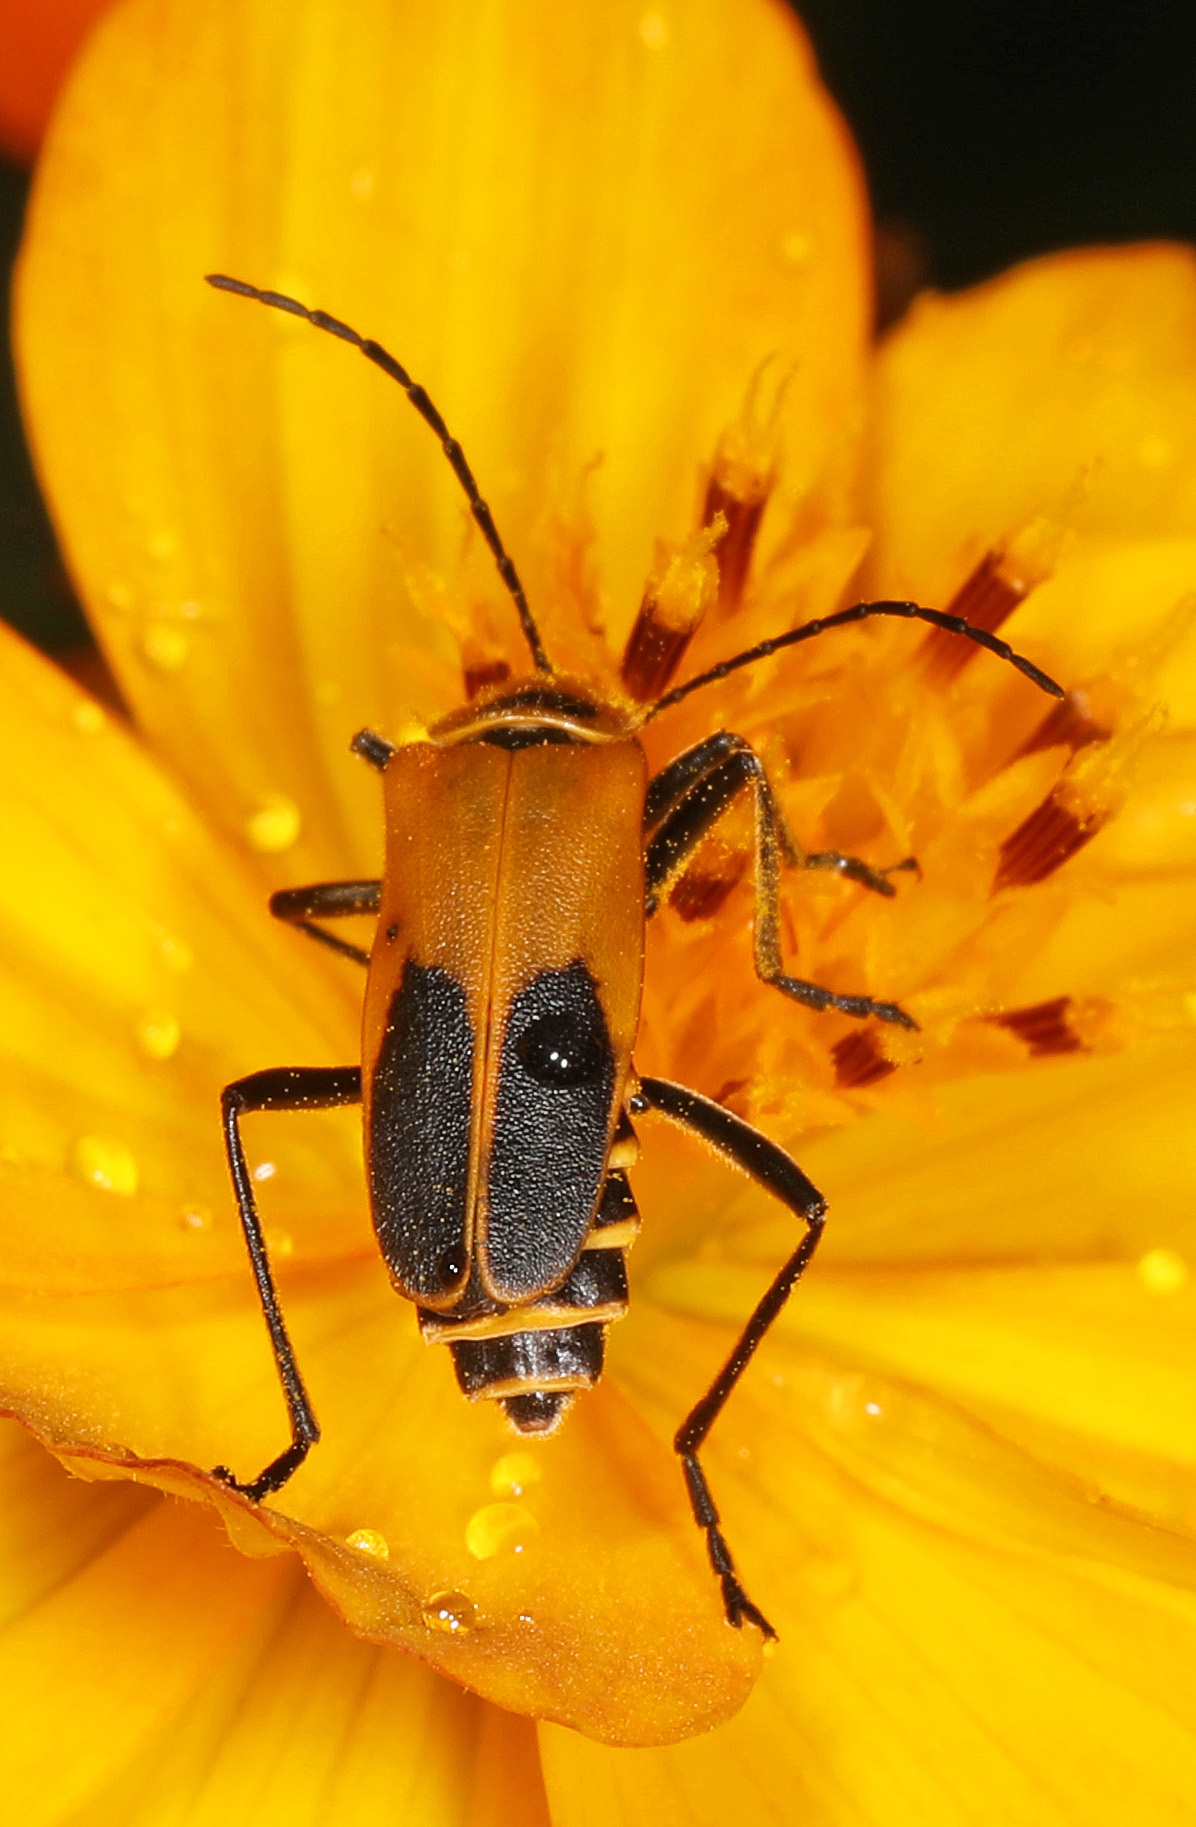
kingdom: Animalia
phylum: Arthropoda
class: Insecta
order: Coleoptera
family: Cantharidae
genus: Chauliognathus
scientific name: Chauliognathus pensylvanicus
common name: Goldenrod soldier beetle
